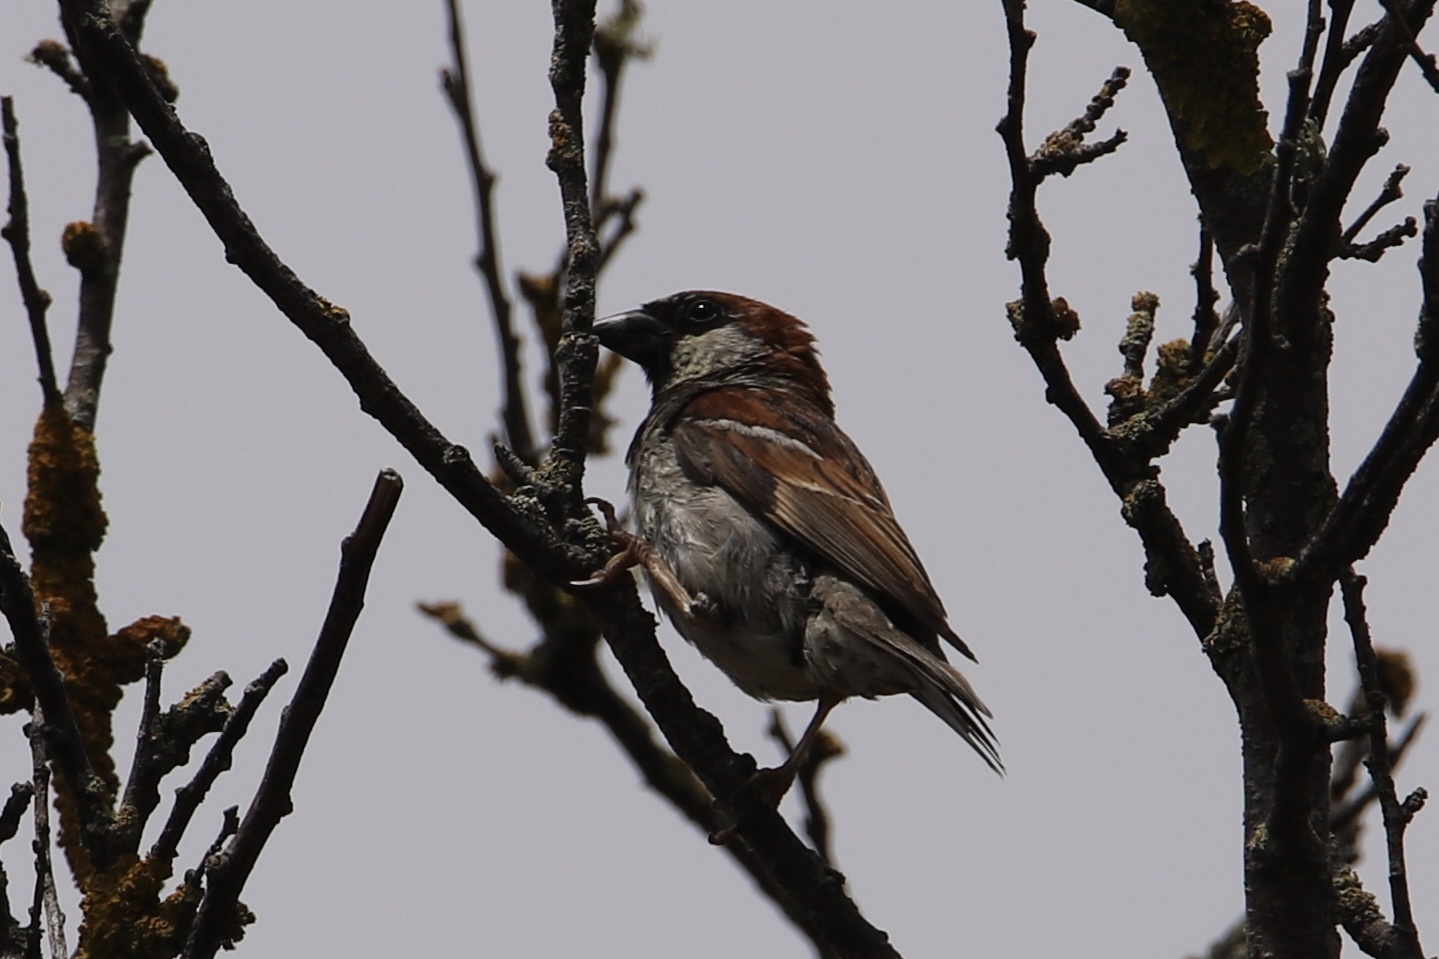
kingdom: Animalia
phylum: Chordata
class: Aves
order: Passeriformes
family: Passeridae
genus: Passer
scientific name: Passer domesticus
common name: House sparrow
